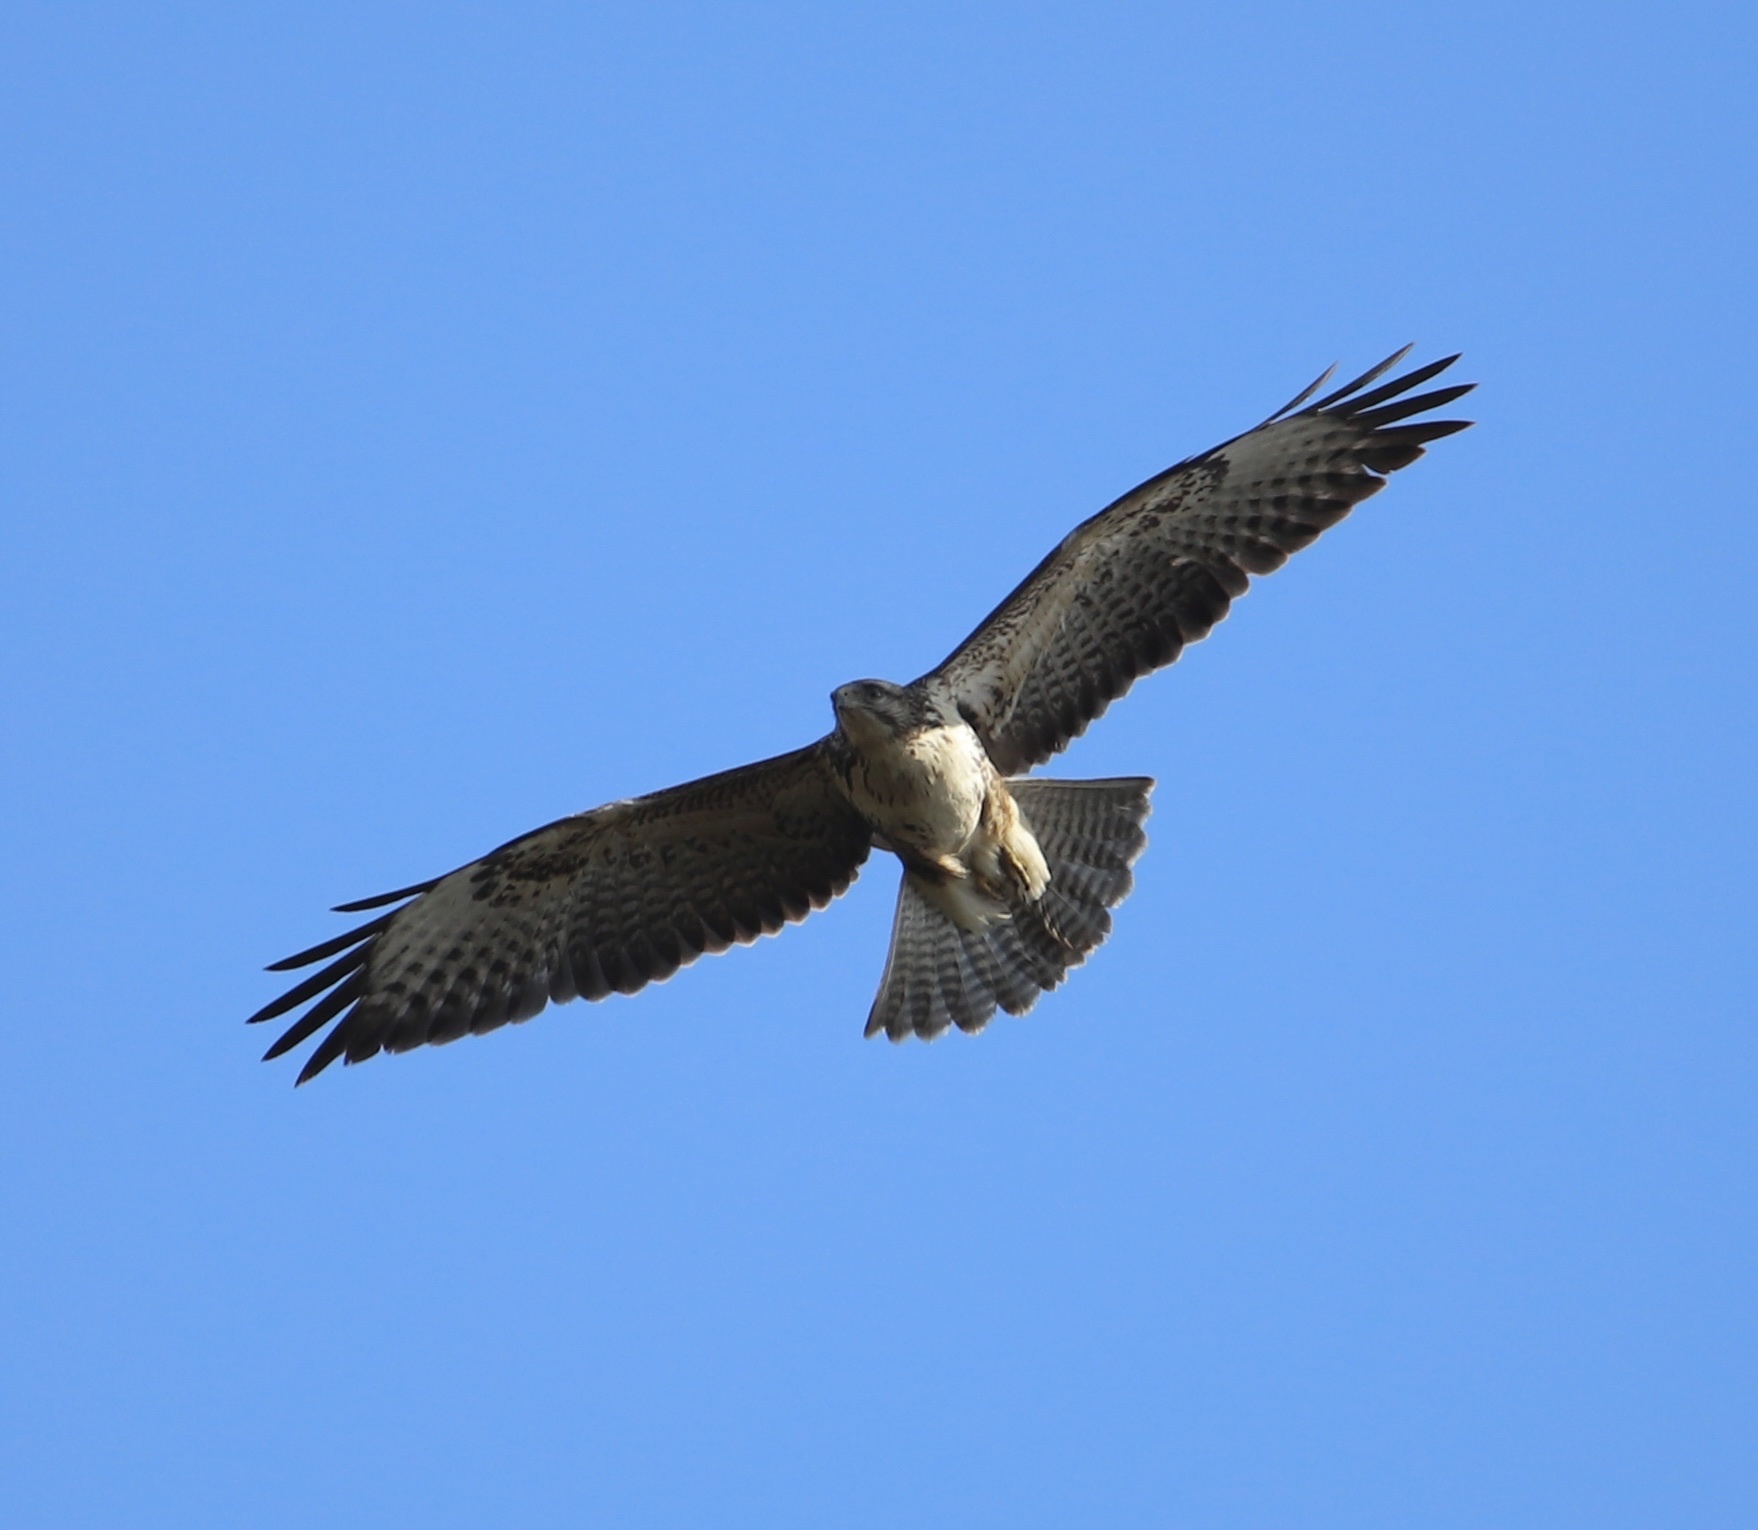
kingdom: Animalia
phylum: Chordata
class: Aves
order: Accipitriformes
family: Accipitridae
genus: Buteo
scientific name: Buteo buteo
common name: Common buzzard
